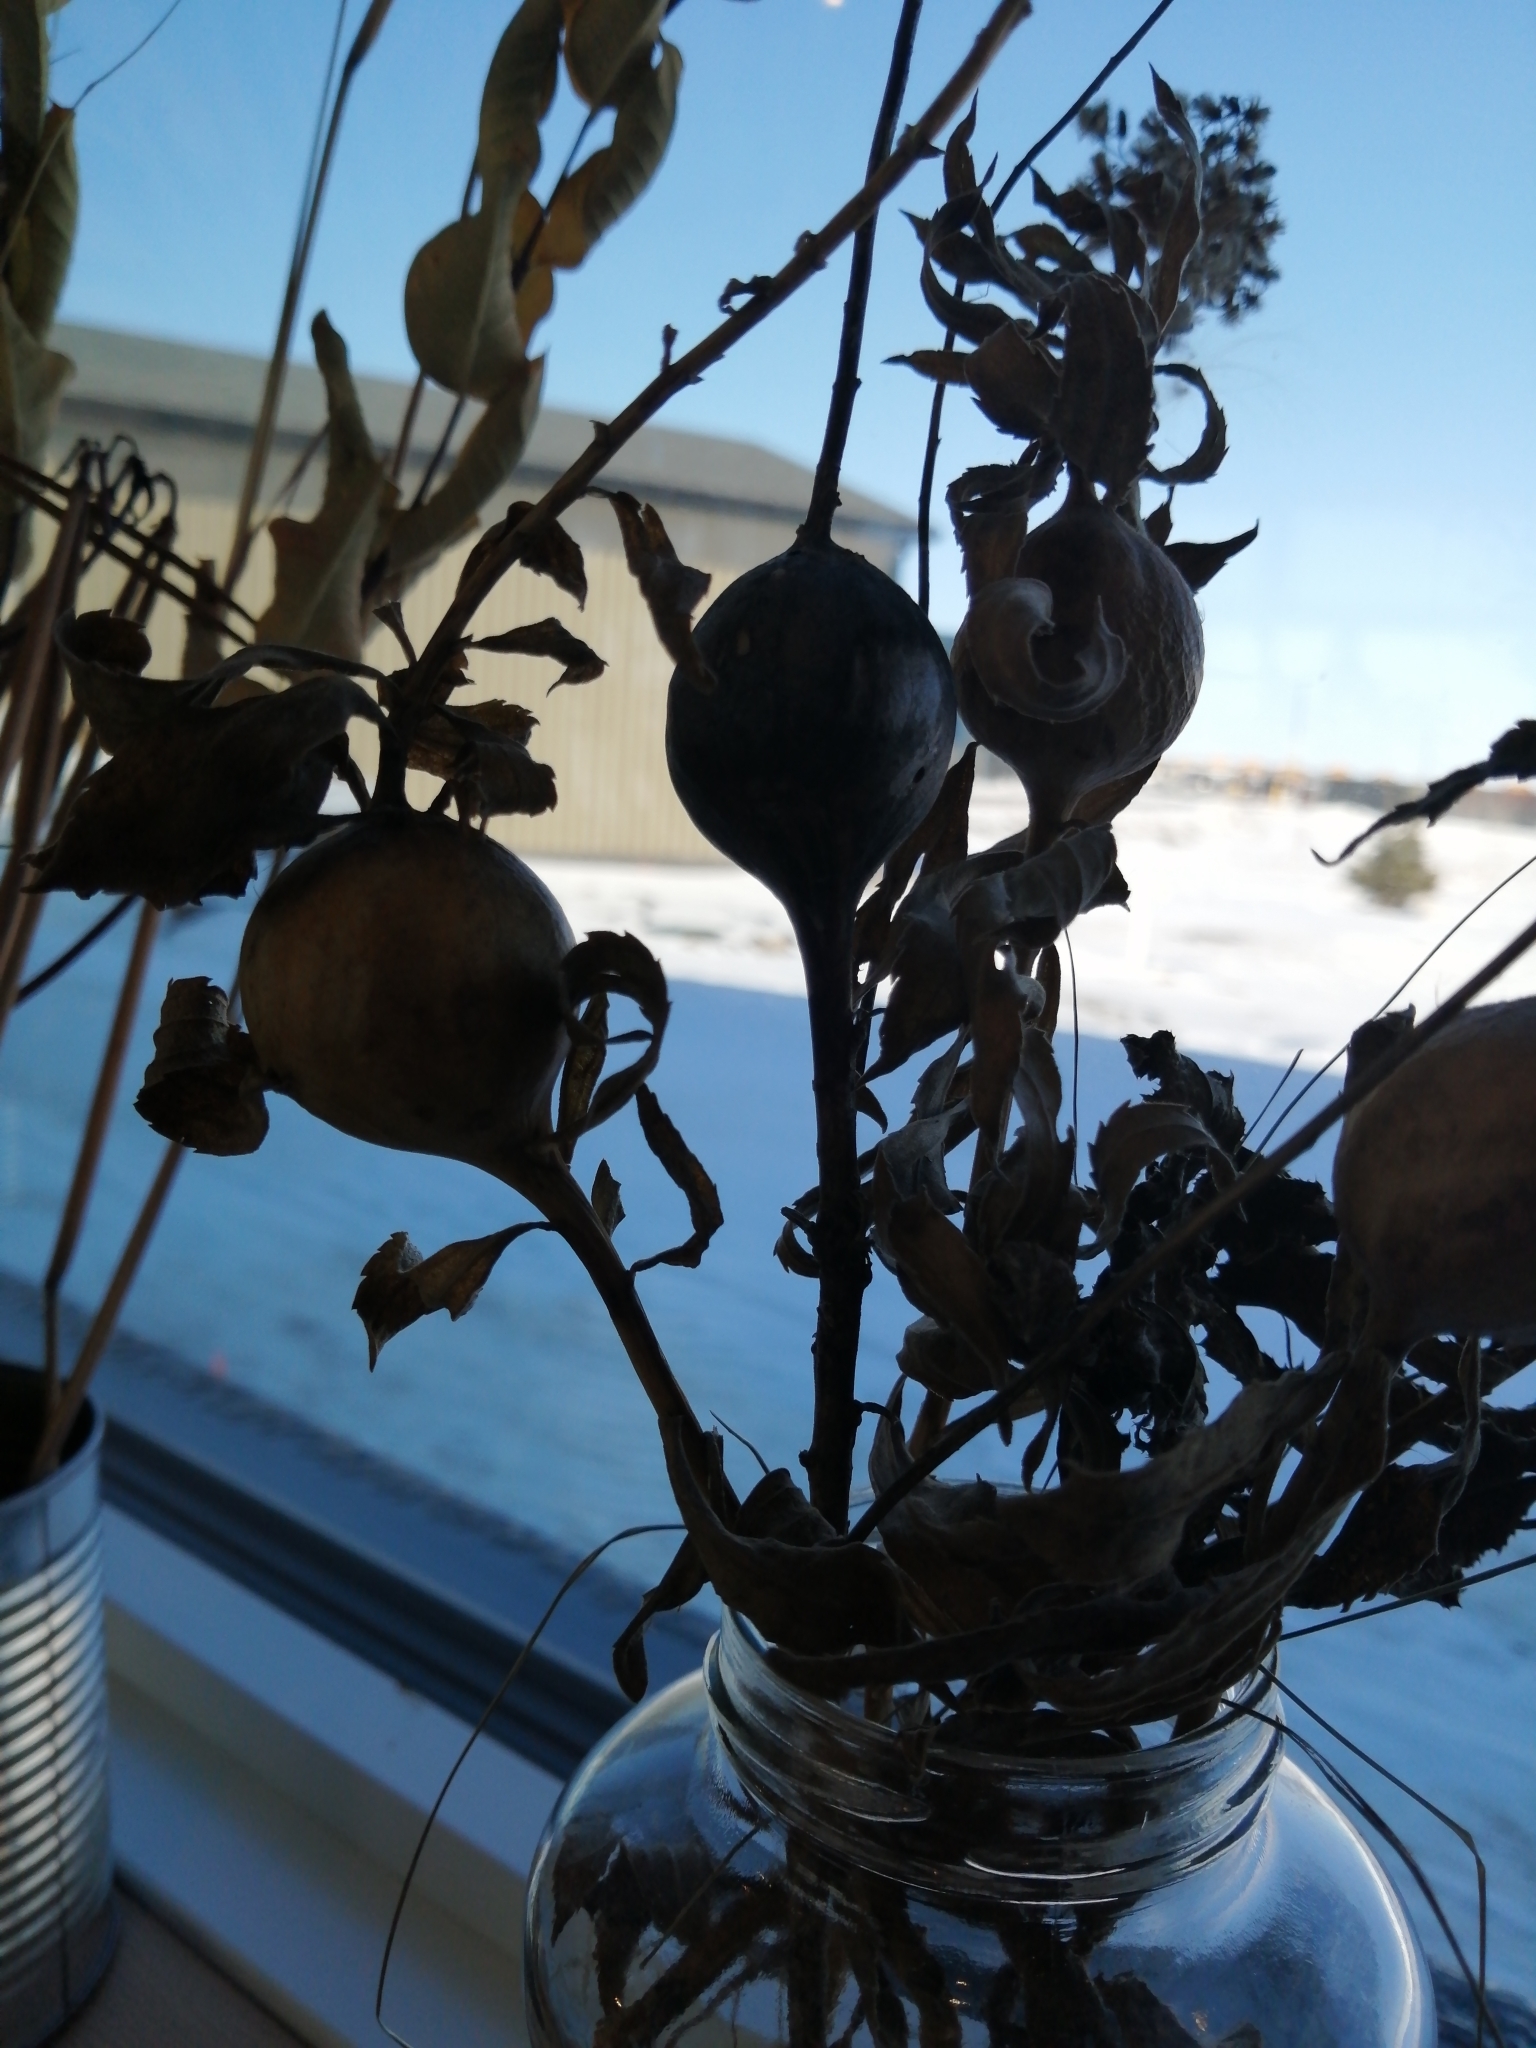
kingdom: Animalia
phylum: Arthropoda
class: Insecta
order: Diptera
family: Tephritidae
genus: Eurosta
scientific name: Eurosta solidaginis
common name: Goldenrod gall fly
